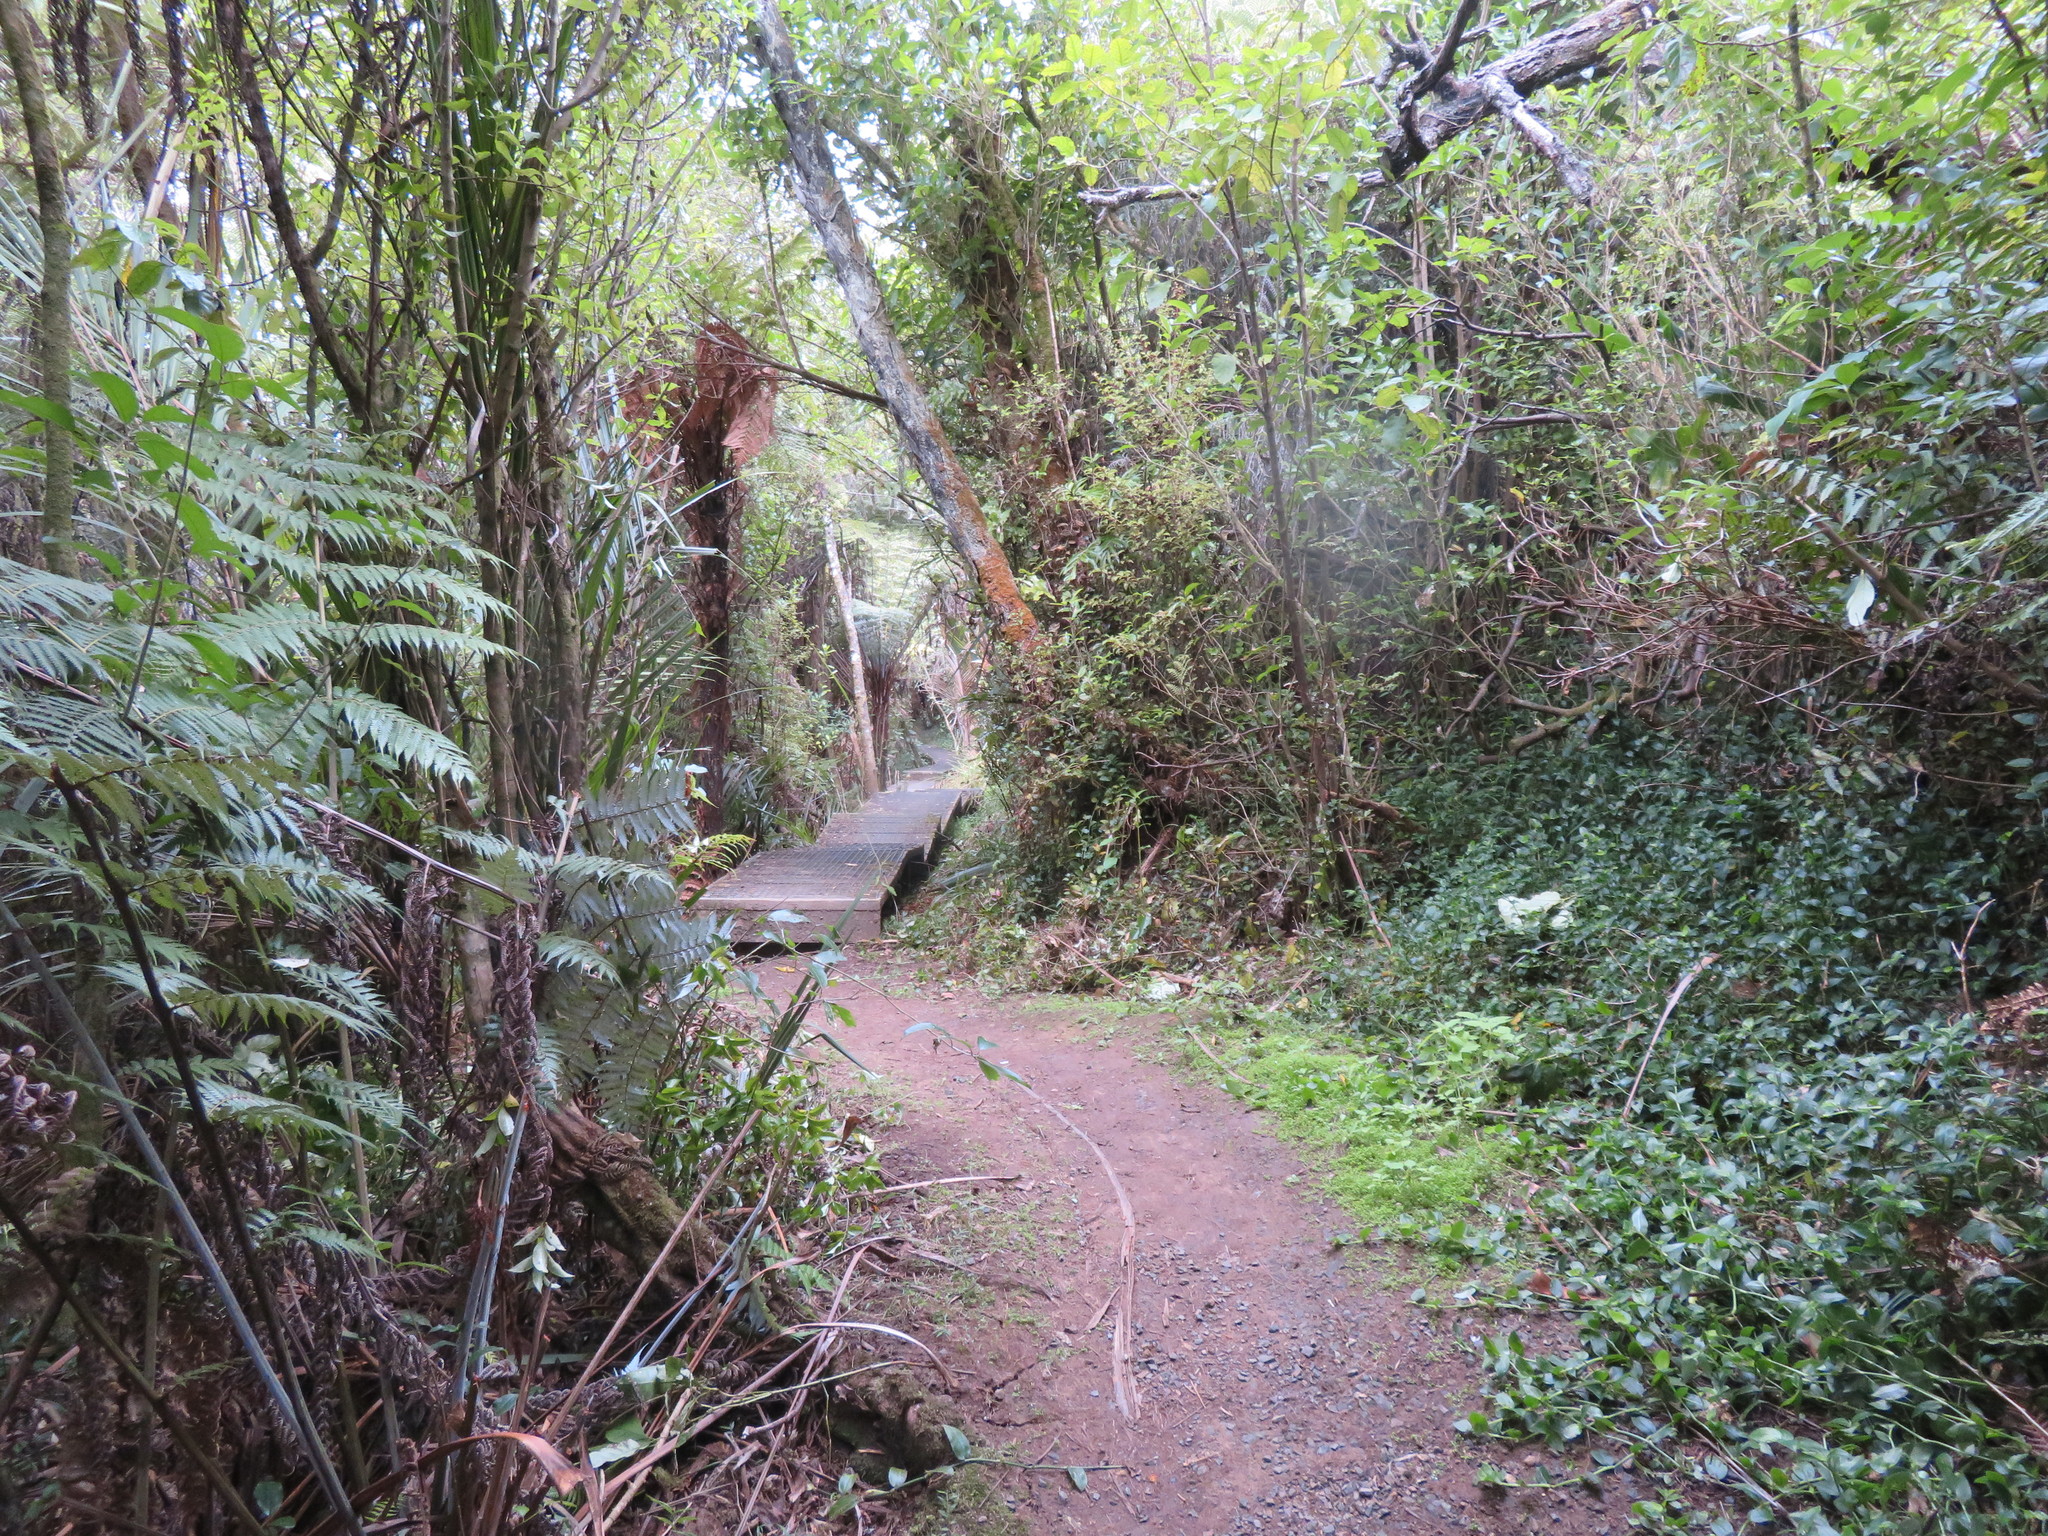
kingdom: Plantae
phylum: Tracheophyta
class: Liliopsida
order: Commelinales
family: Commelinaceae
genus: Tradescantia
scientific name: Tradescantia fluminensis
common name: Wandering-jew
